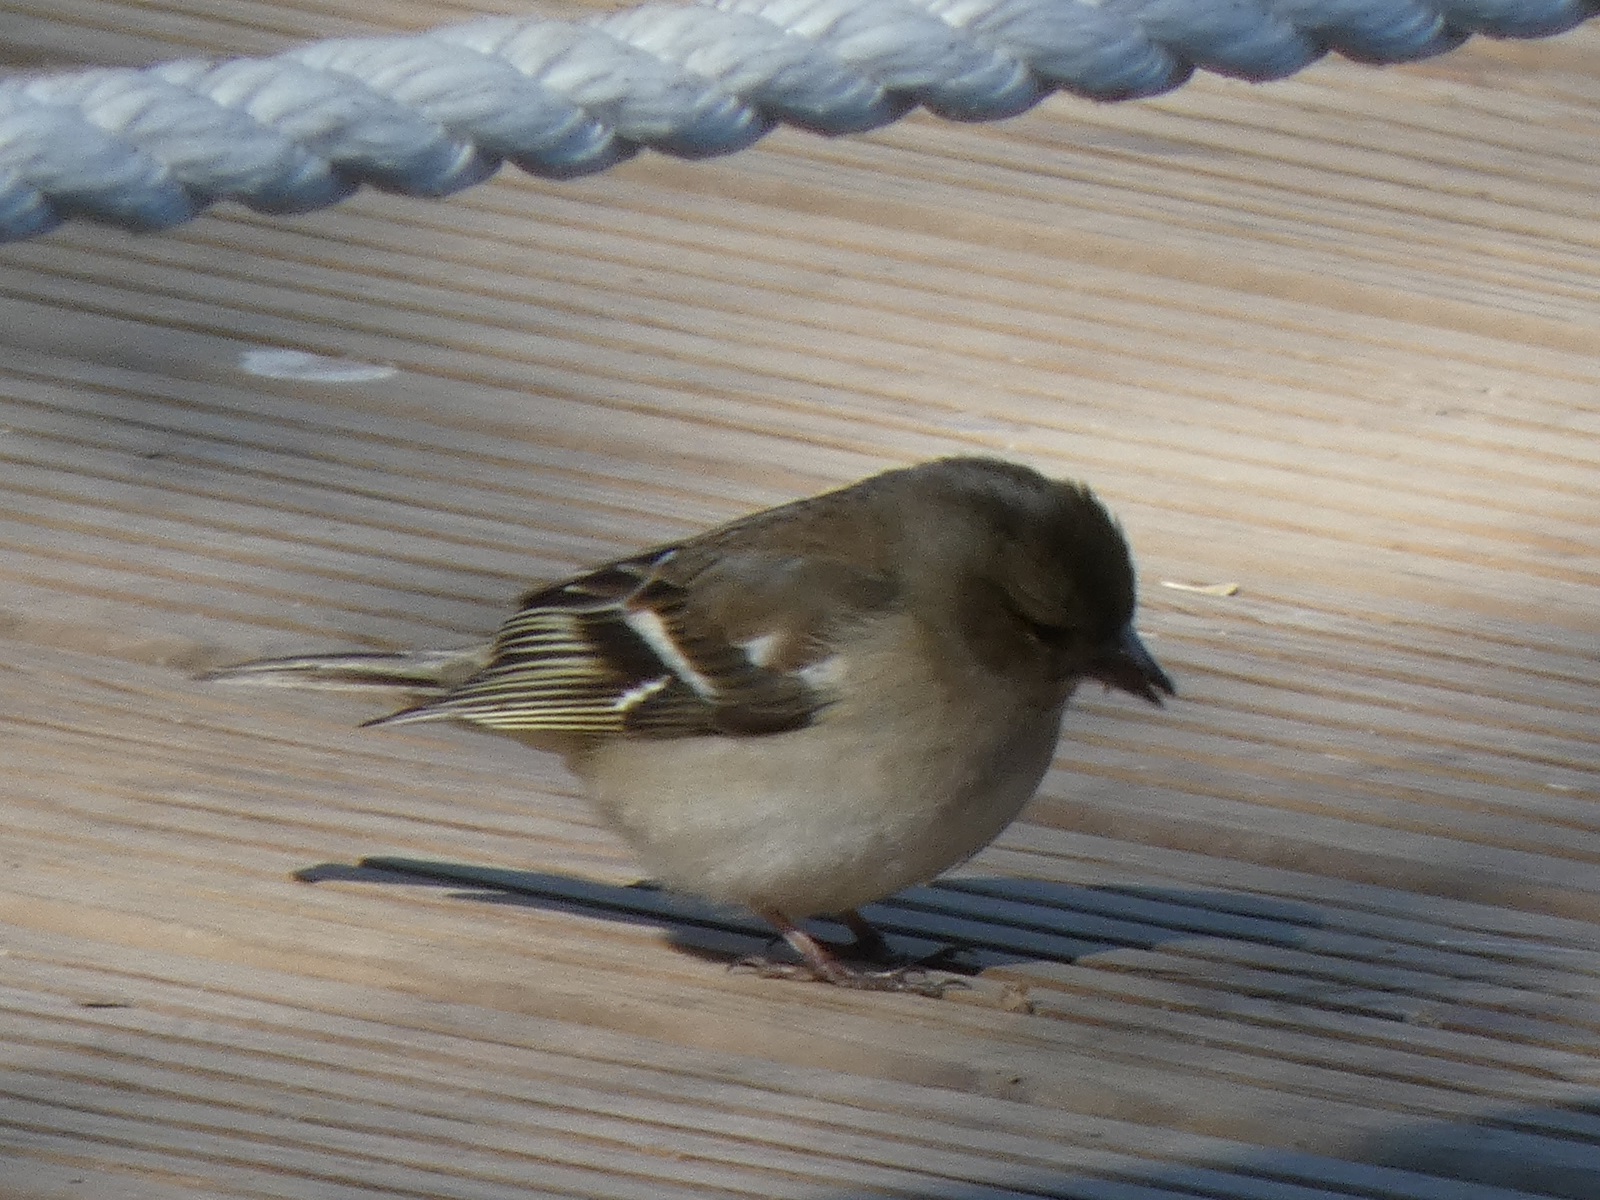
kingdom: Animalia
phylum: Chordata
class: Aves
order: Passeriformes
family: Fringillidae
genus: Fringilla
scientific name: Fringilla coelebs
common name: Common chaffinch
